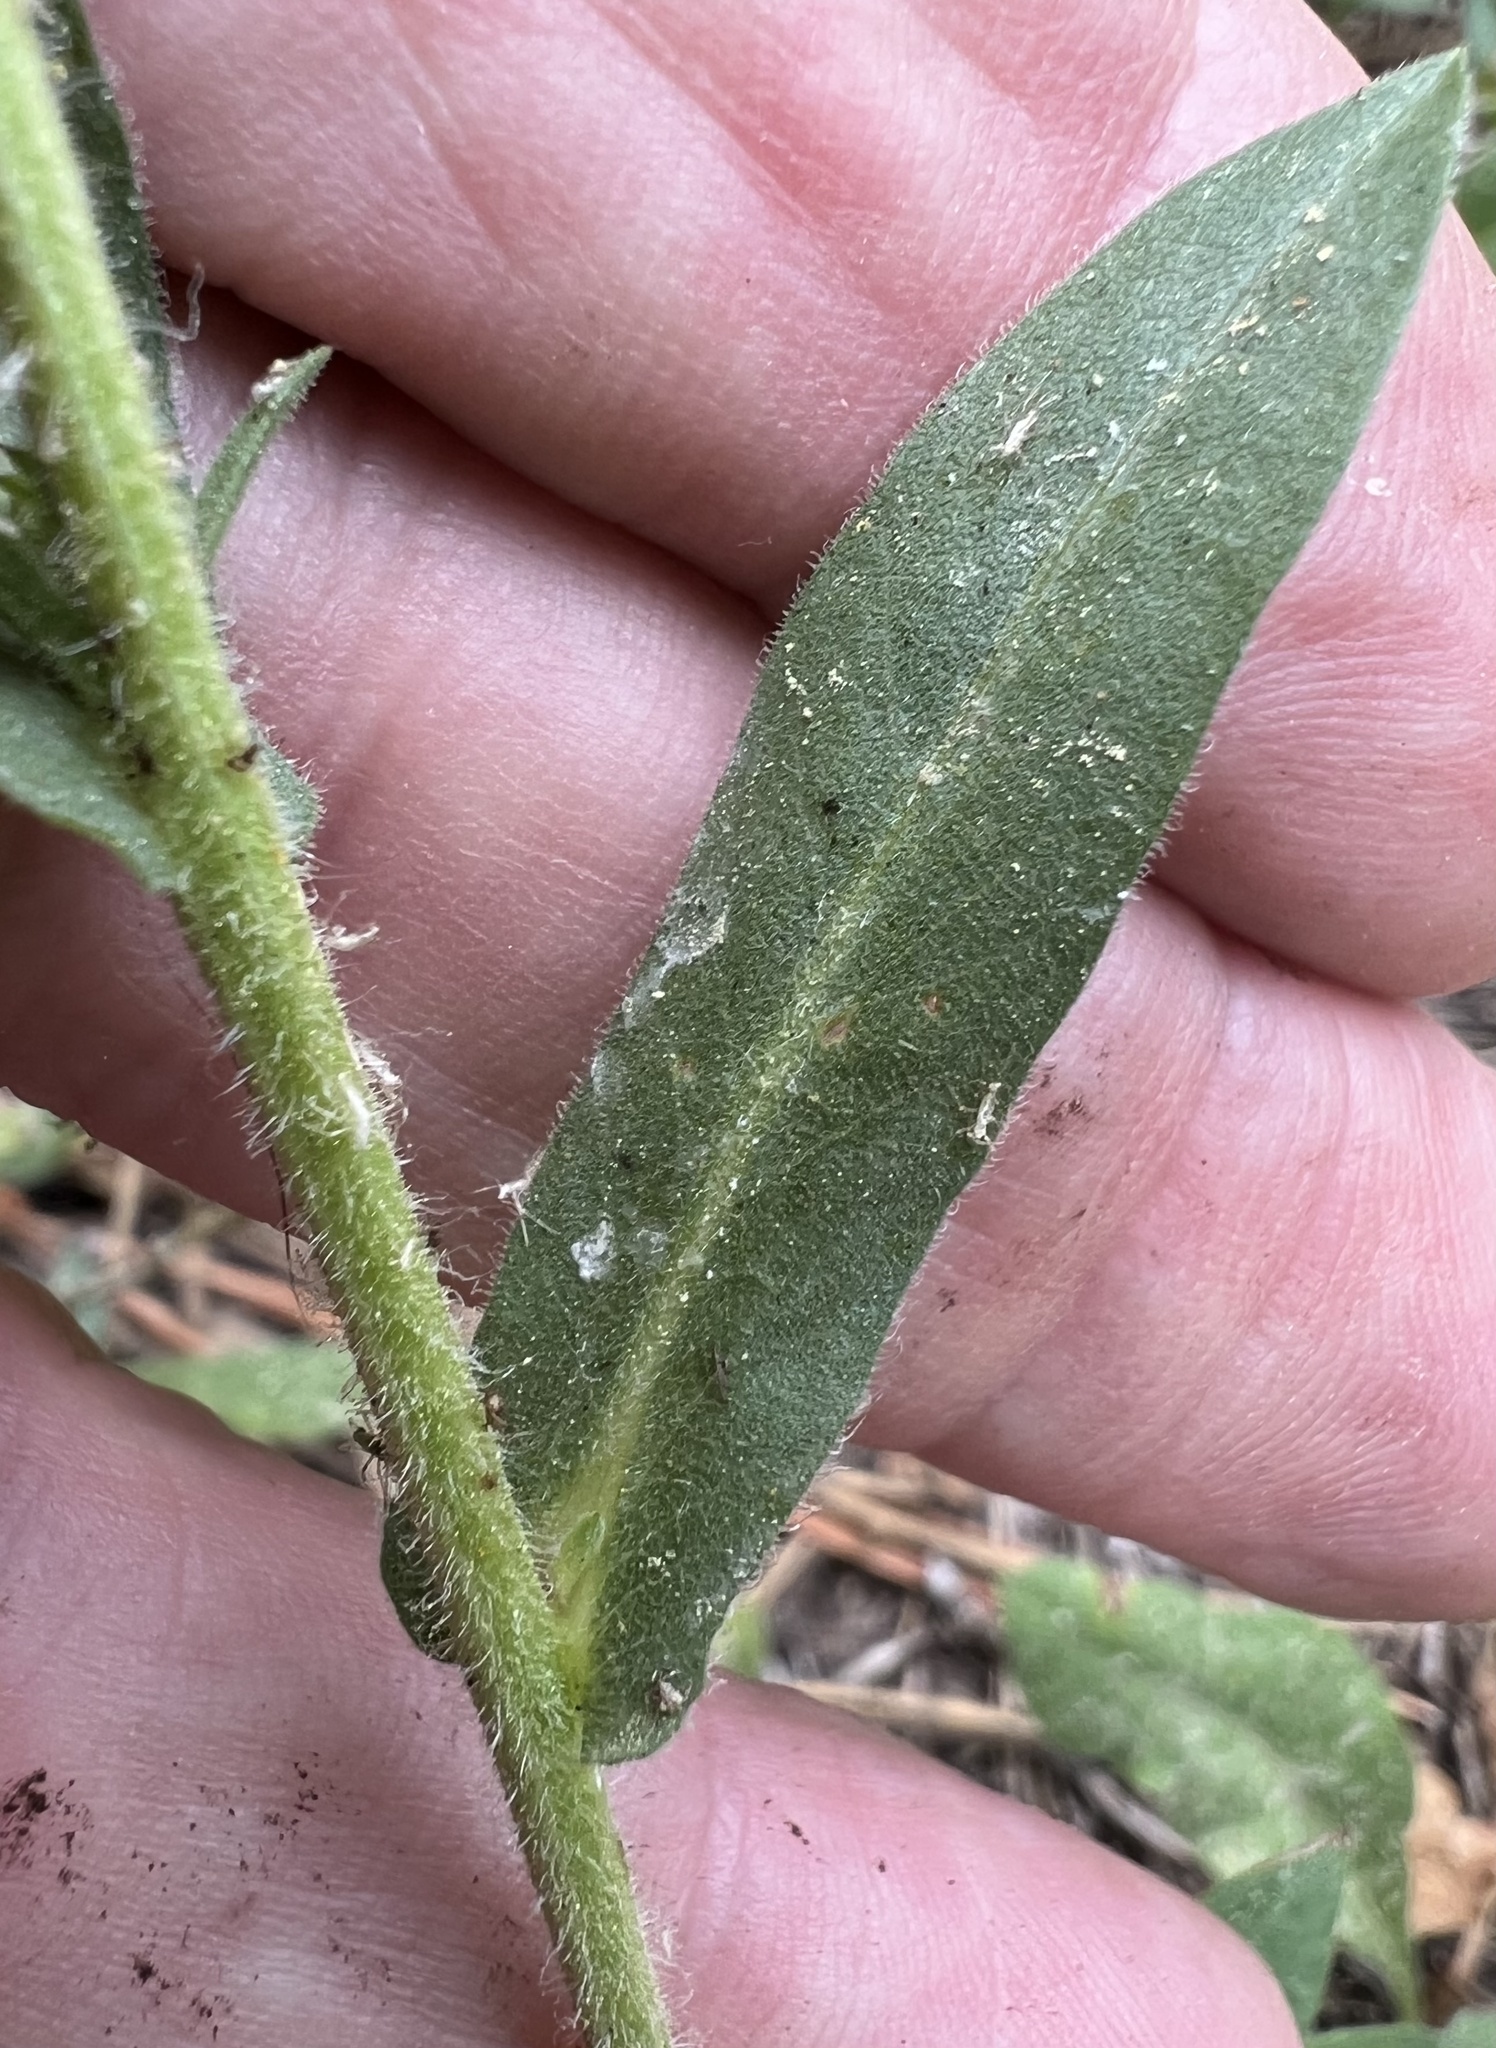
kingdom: Plantae
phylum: Tracheophyta
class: Magnoliopsida
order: Asterales
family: Asteraceae
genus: Eurybia
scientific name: Eurybia integrifolia
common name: Thick-stem aster
